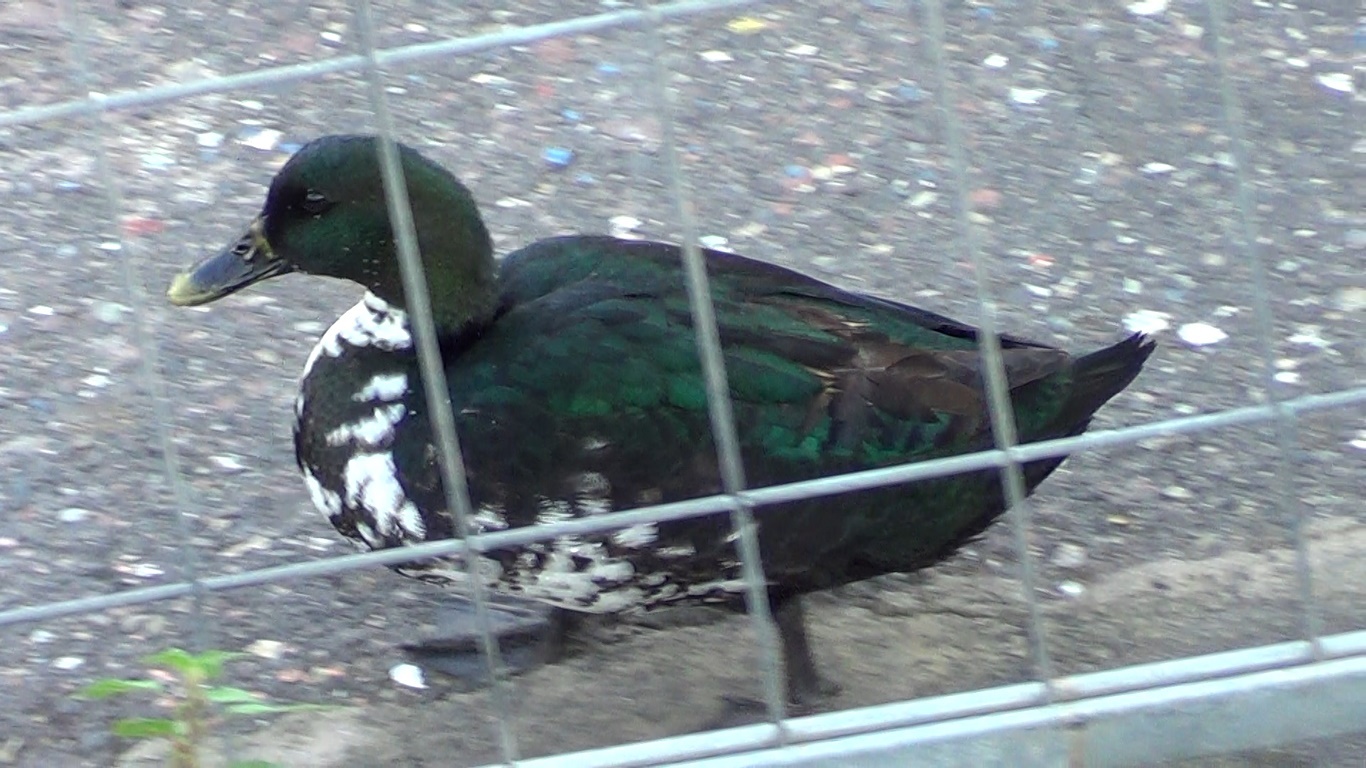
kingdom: Animalia
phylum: Chordata
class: Aves
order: Anseriformes
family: Anatidae
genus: Anas
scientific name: Anas platyrhynchos
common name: Mallard
